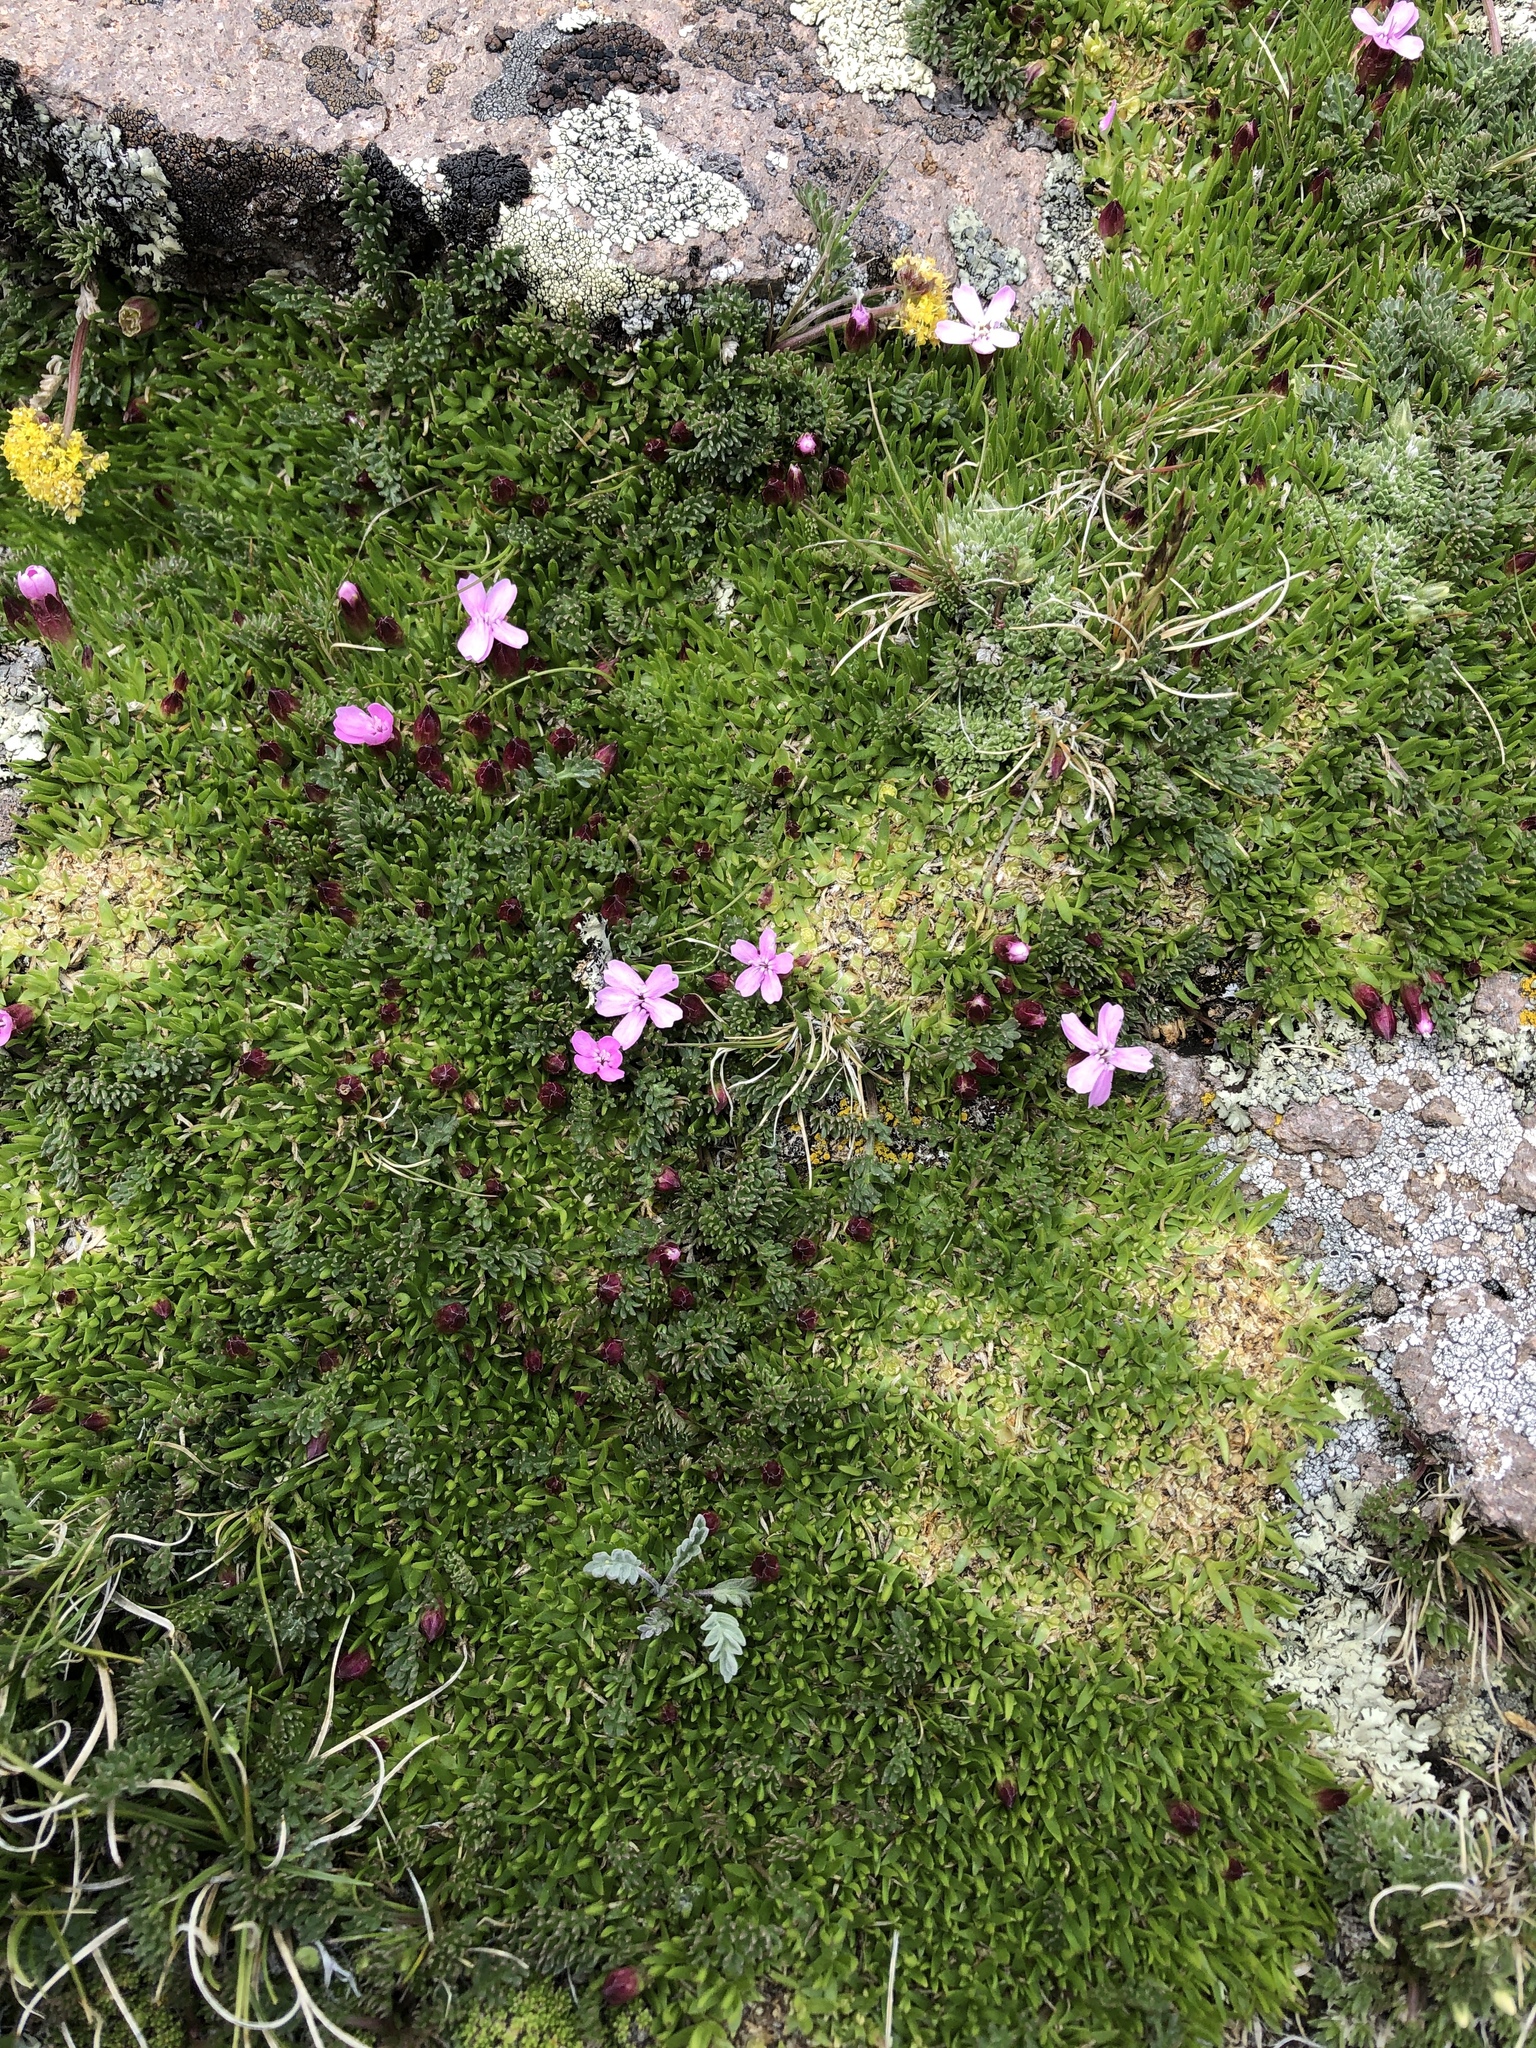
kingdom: Plantae
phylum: Tracheophyta
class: Magnoliopsida
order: Caryophyllales
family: Caryophyllaceae
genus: Silene
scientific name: Silene acaulis
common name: Moss campion
